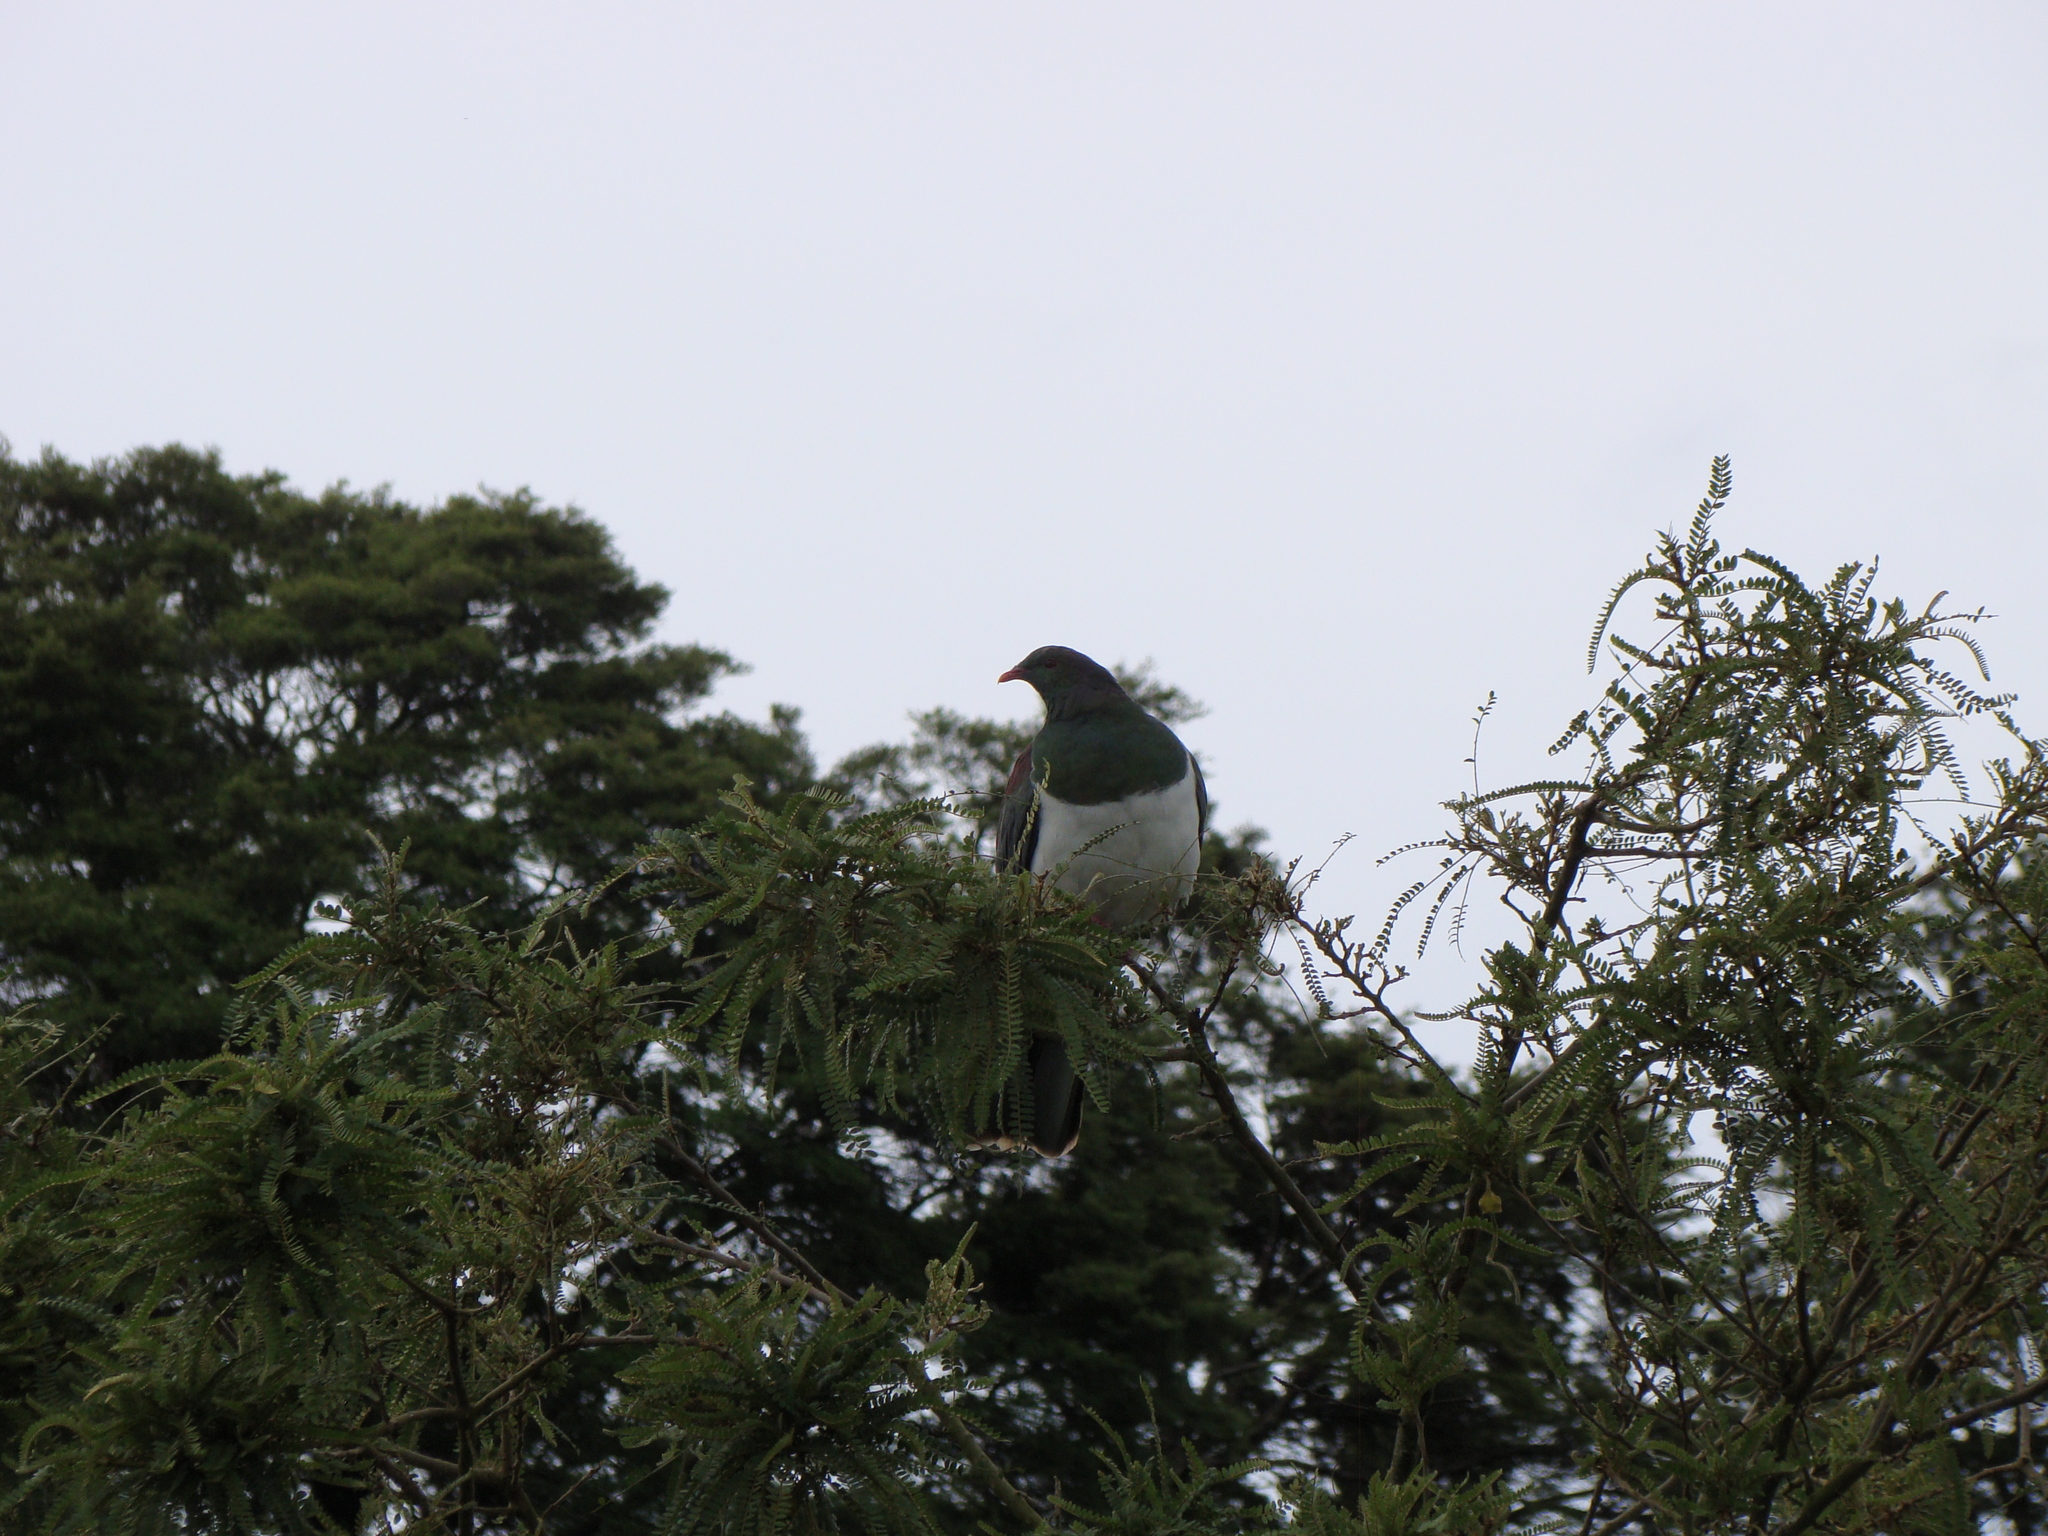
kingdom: Animalia
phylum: Chordata
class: Aves
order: Columbiformes
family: Columbidae
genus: Hemiphaga
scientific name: Hemiphaga novaeseelandiae
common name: New zealand pigeon
